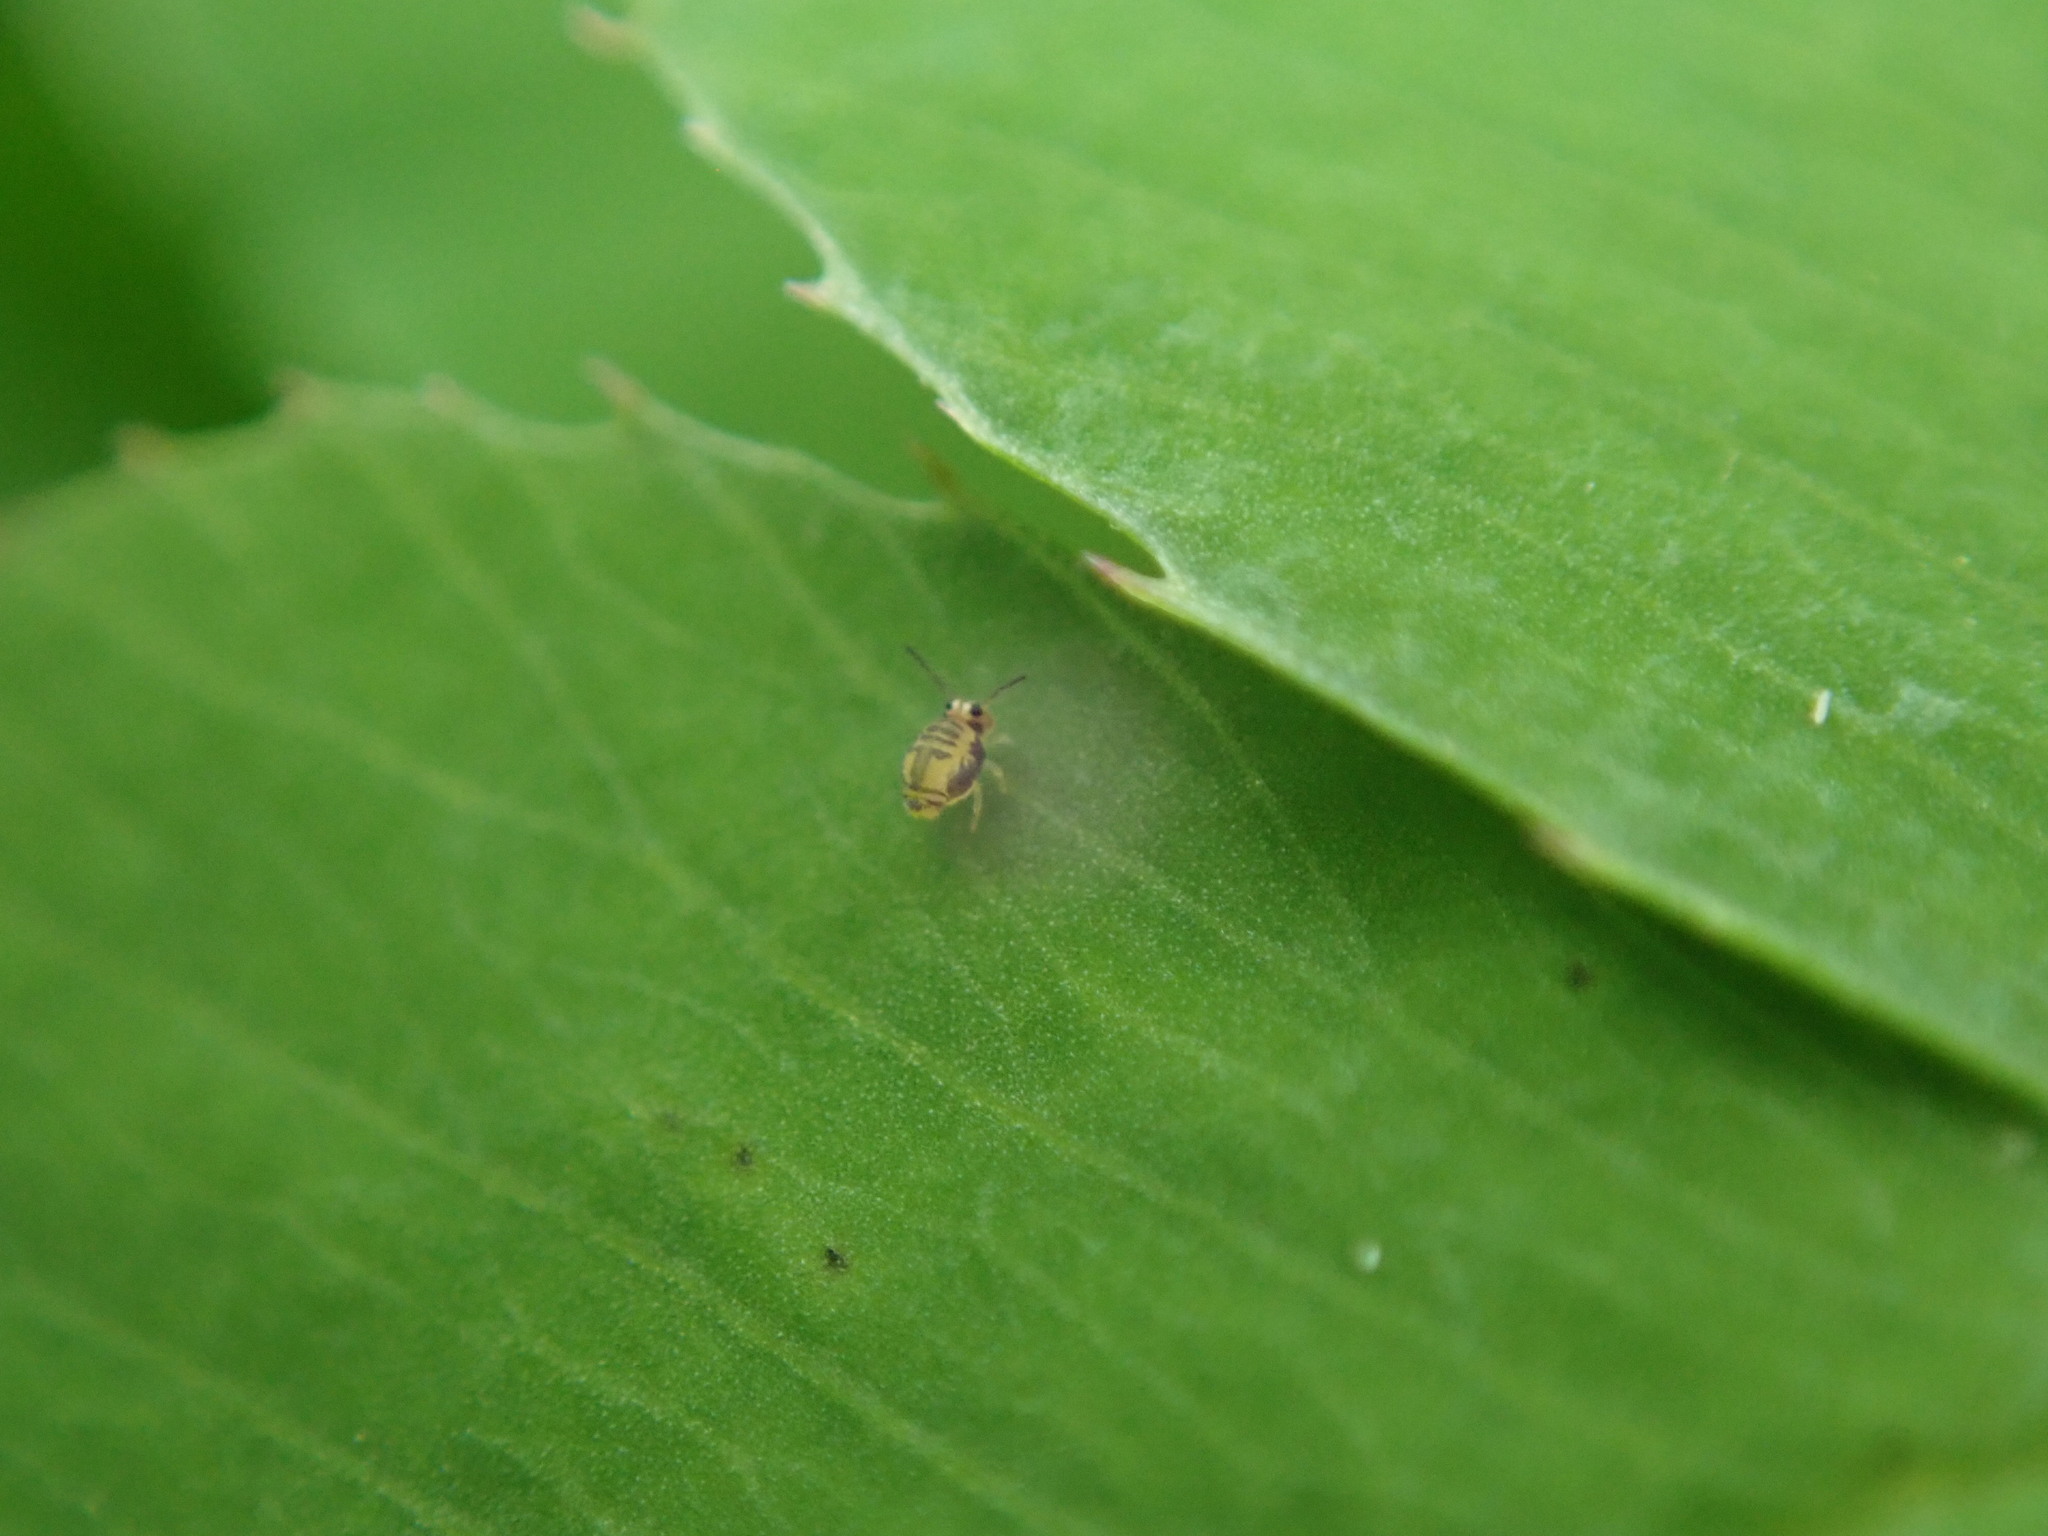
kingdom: Animalia
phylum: Arthropoda
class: Collembola
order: Symphypleona
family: Katiannidae
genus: Sminthurinus
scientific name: Sminthurinus henshawi
